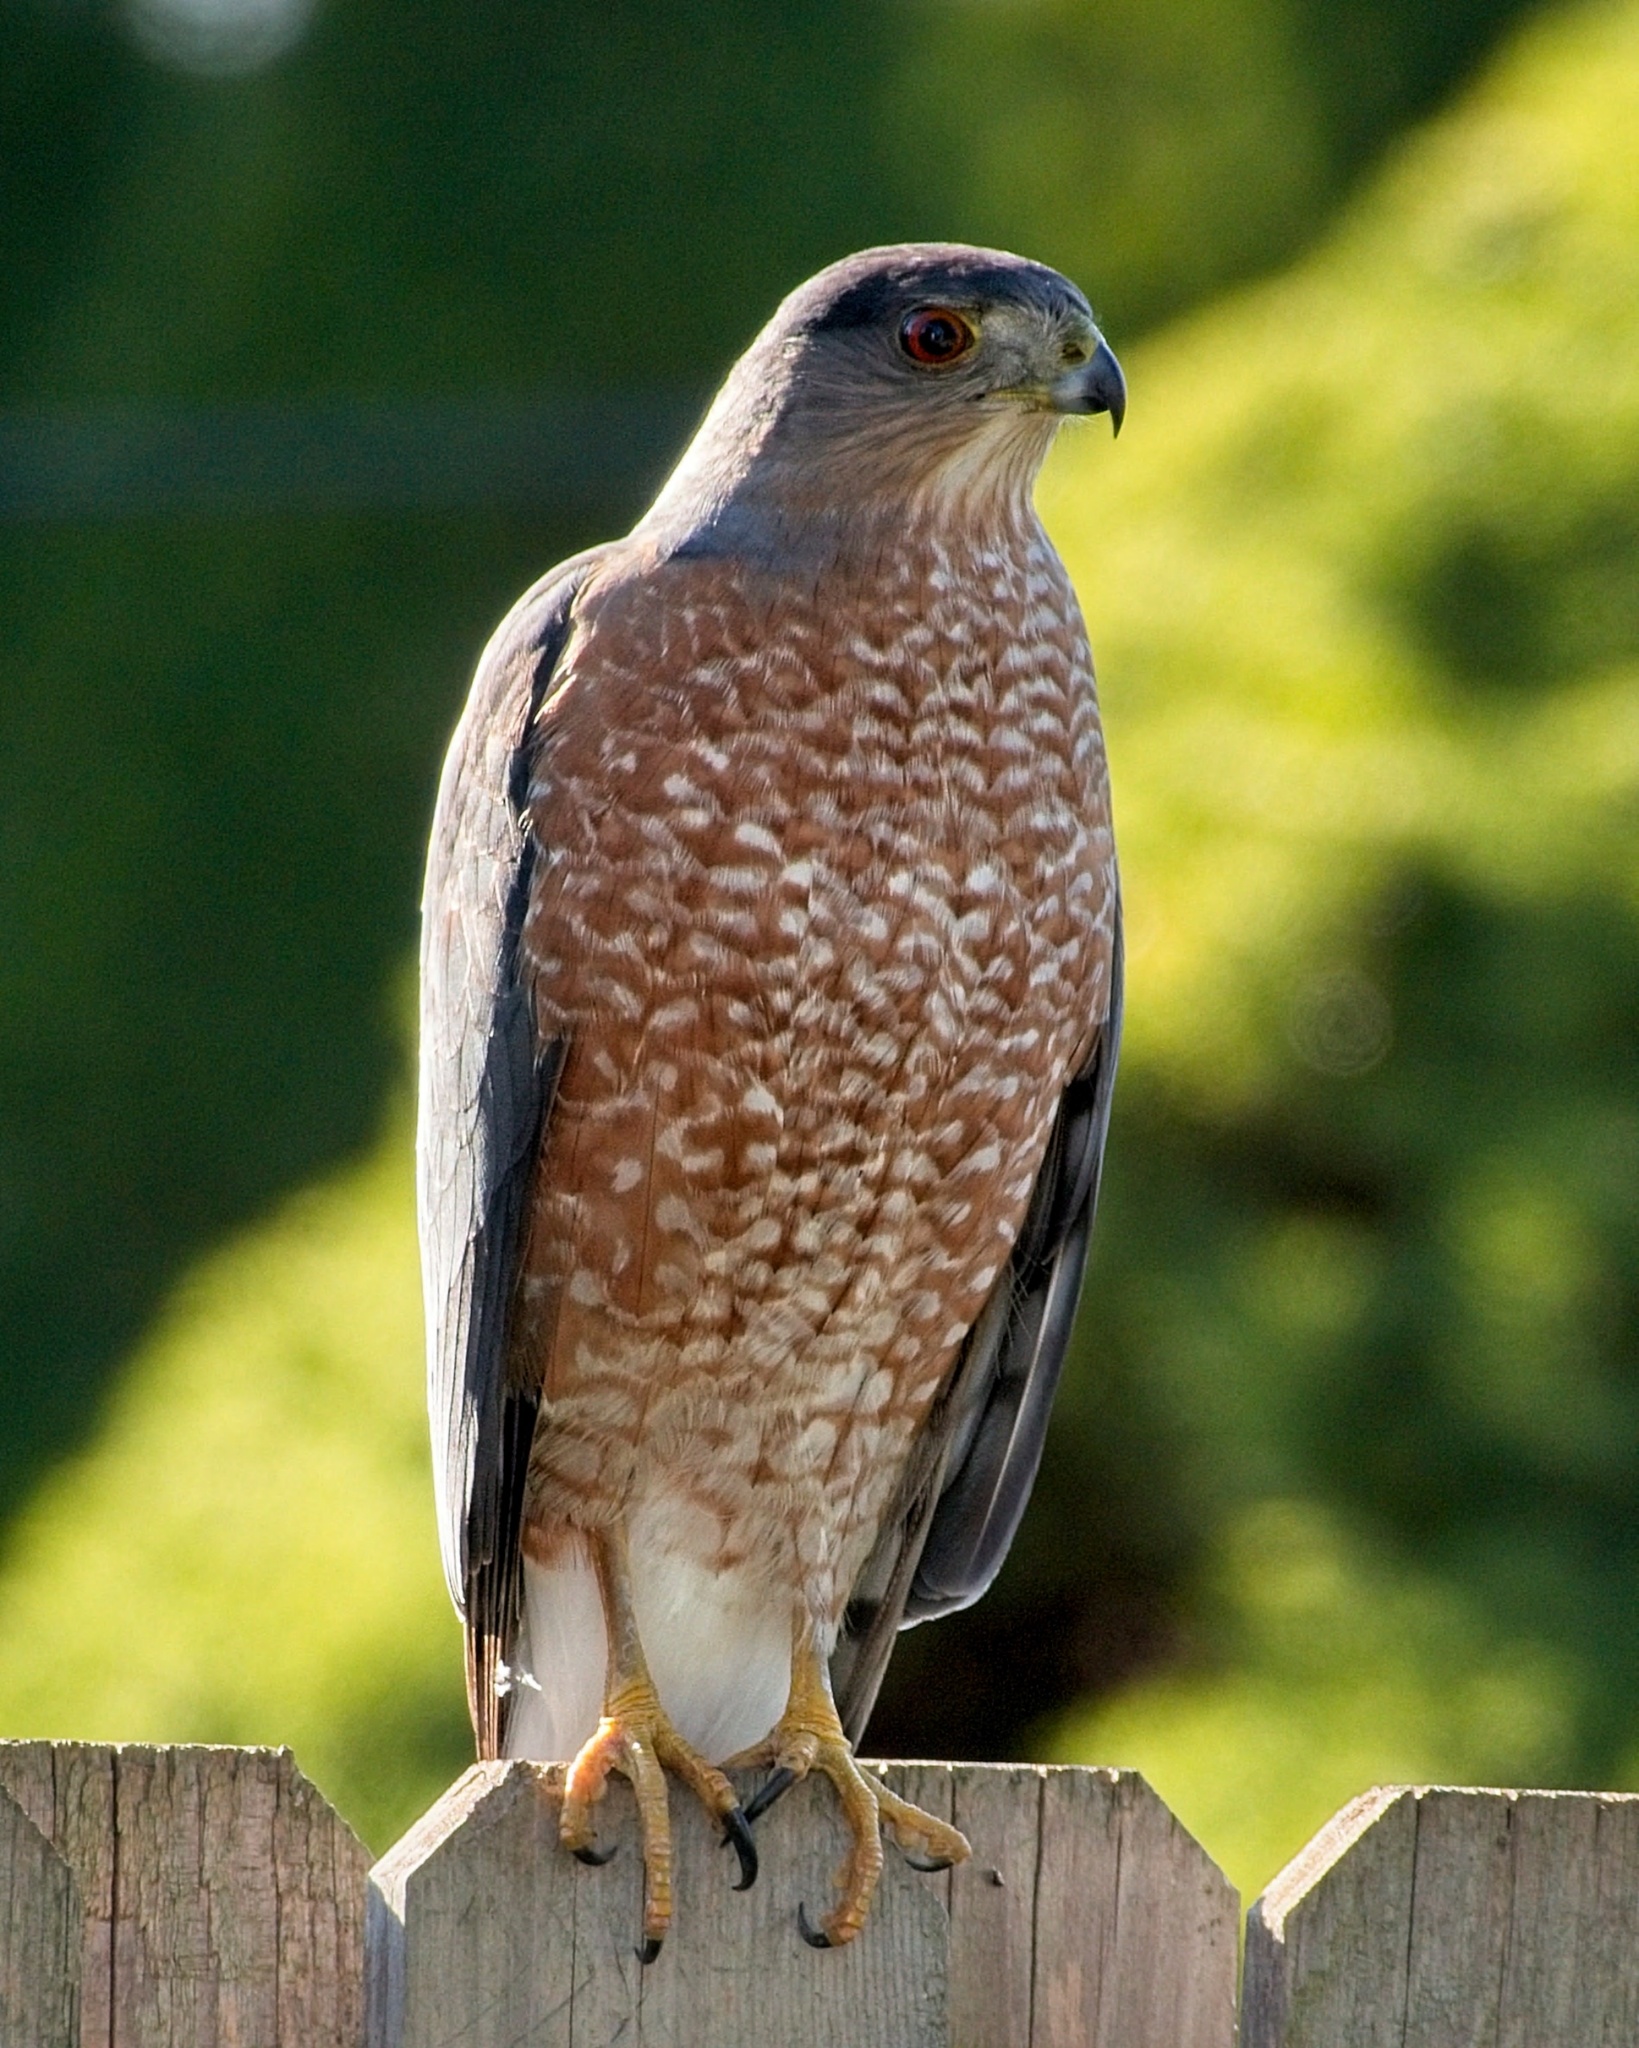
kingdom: Animalia
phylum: Chordata
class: Aves
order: Accipitriformes
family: Accipitridae
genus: Accipiter
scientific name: Accipiter cooperii
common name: Cooper's hawk
